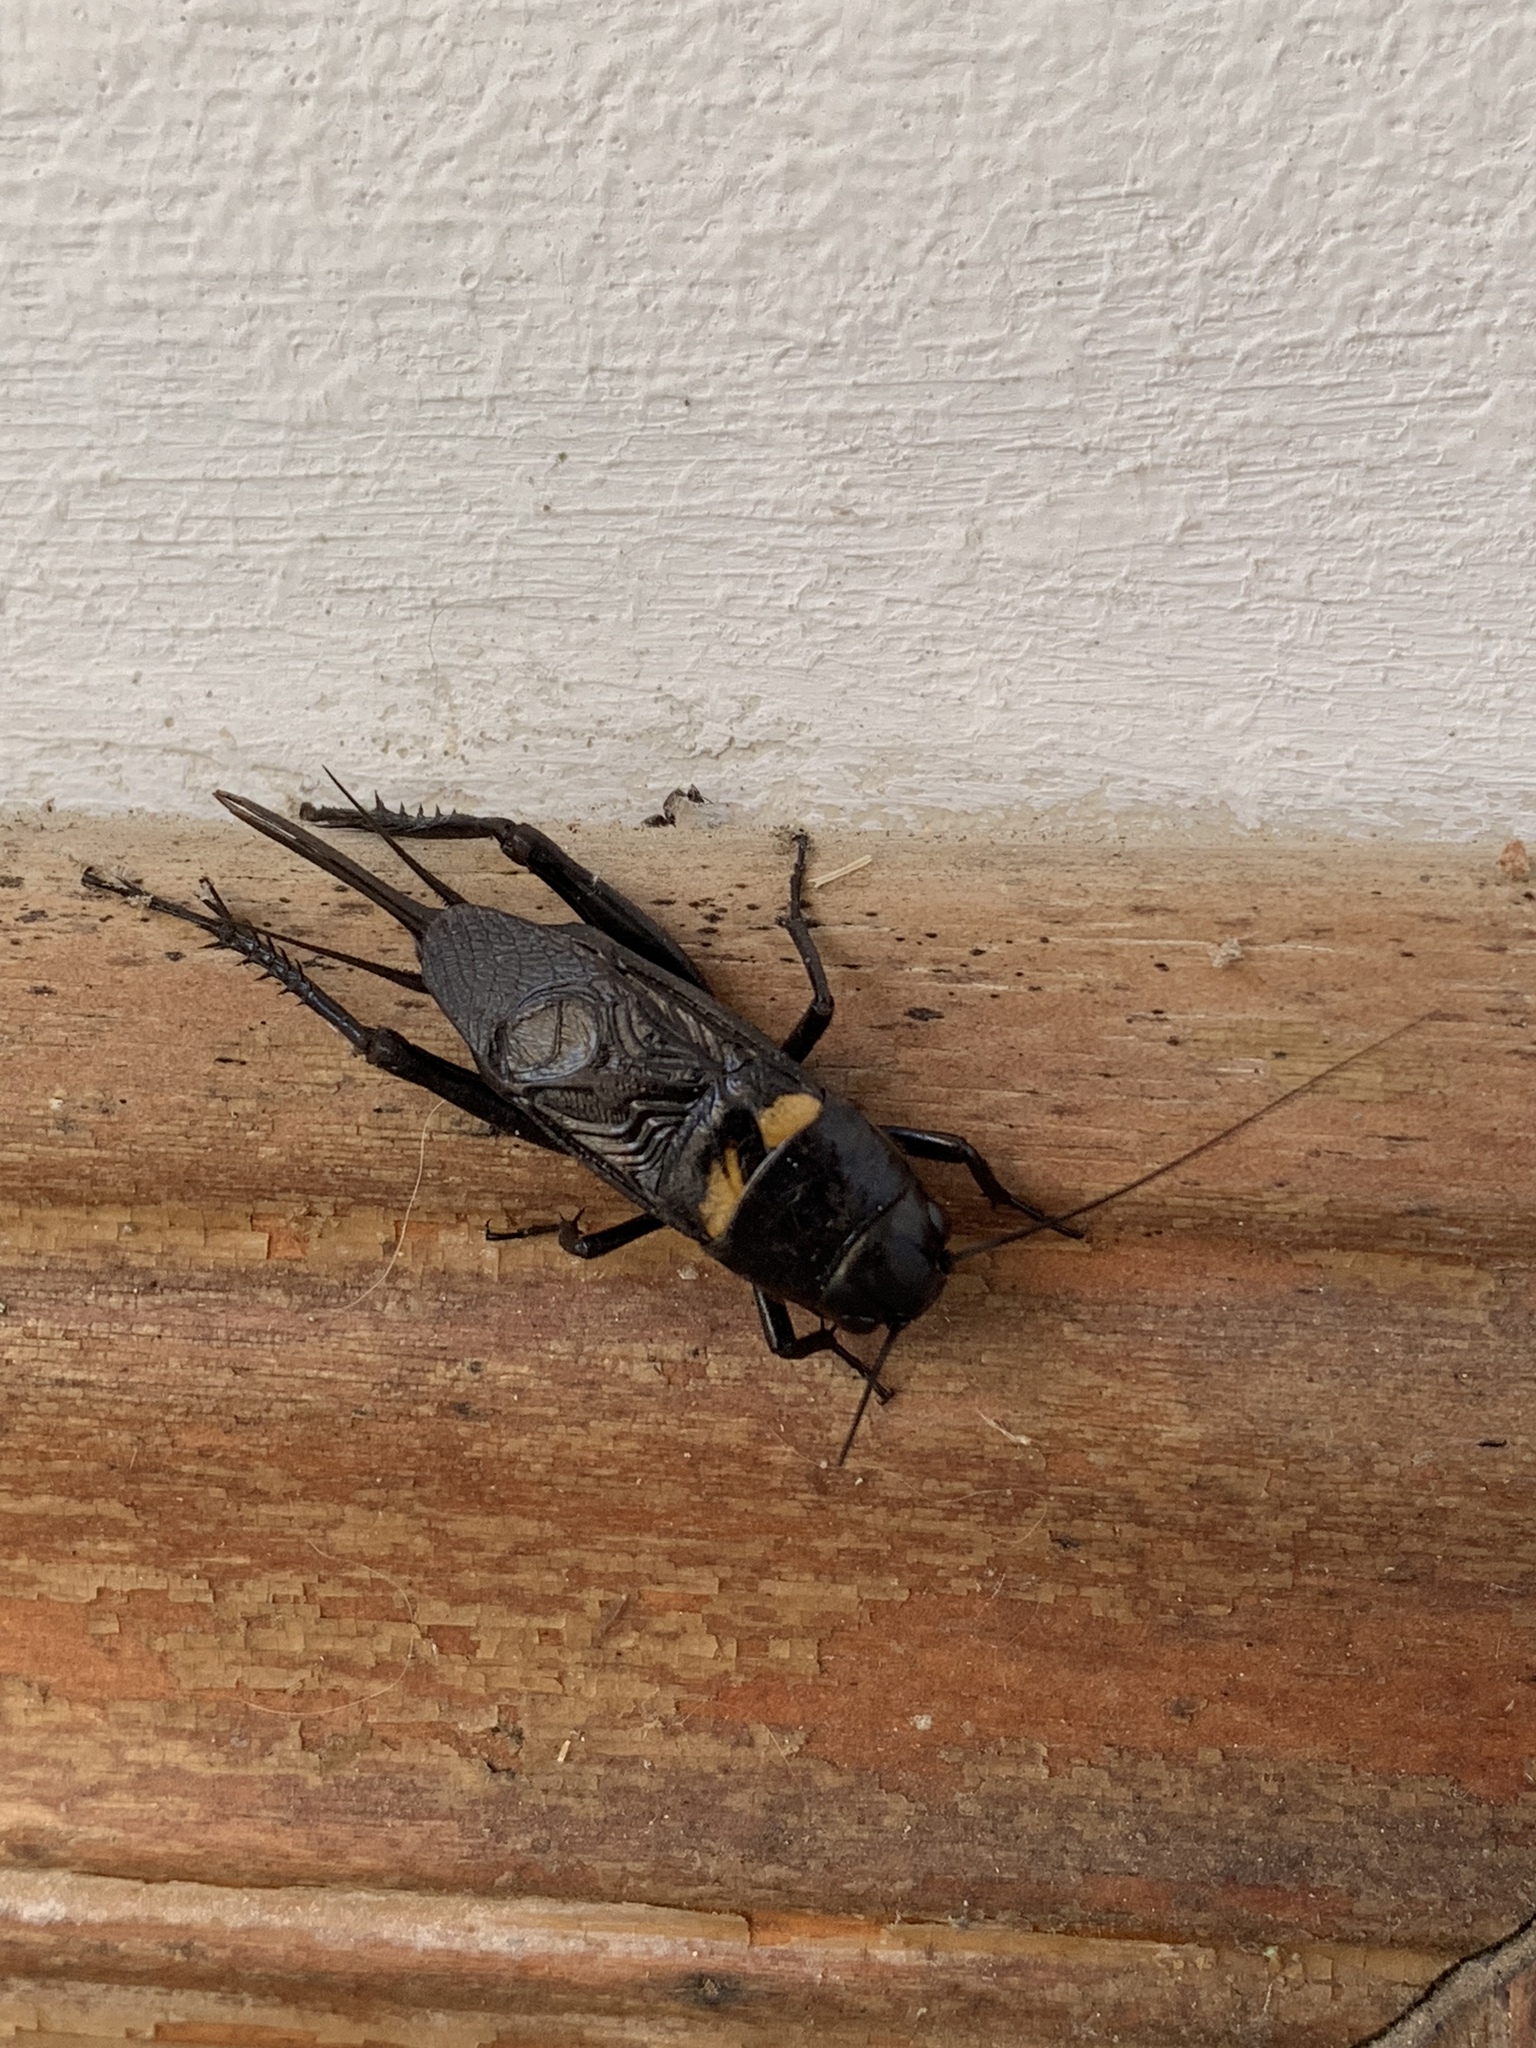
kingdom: Animalia
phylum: Arthropoda
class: Insecta
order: Orthoptera
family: Gryllidae
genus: Gryllus
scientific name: Gryllus bimaculatus
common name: Two-spotted cricket
